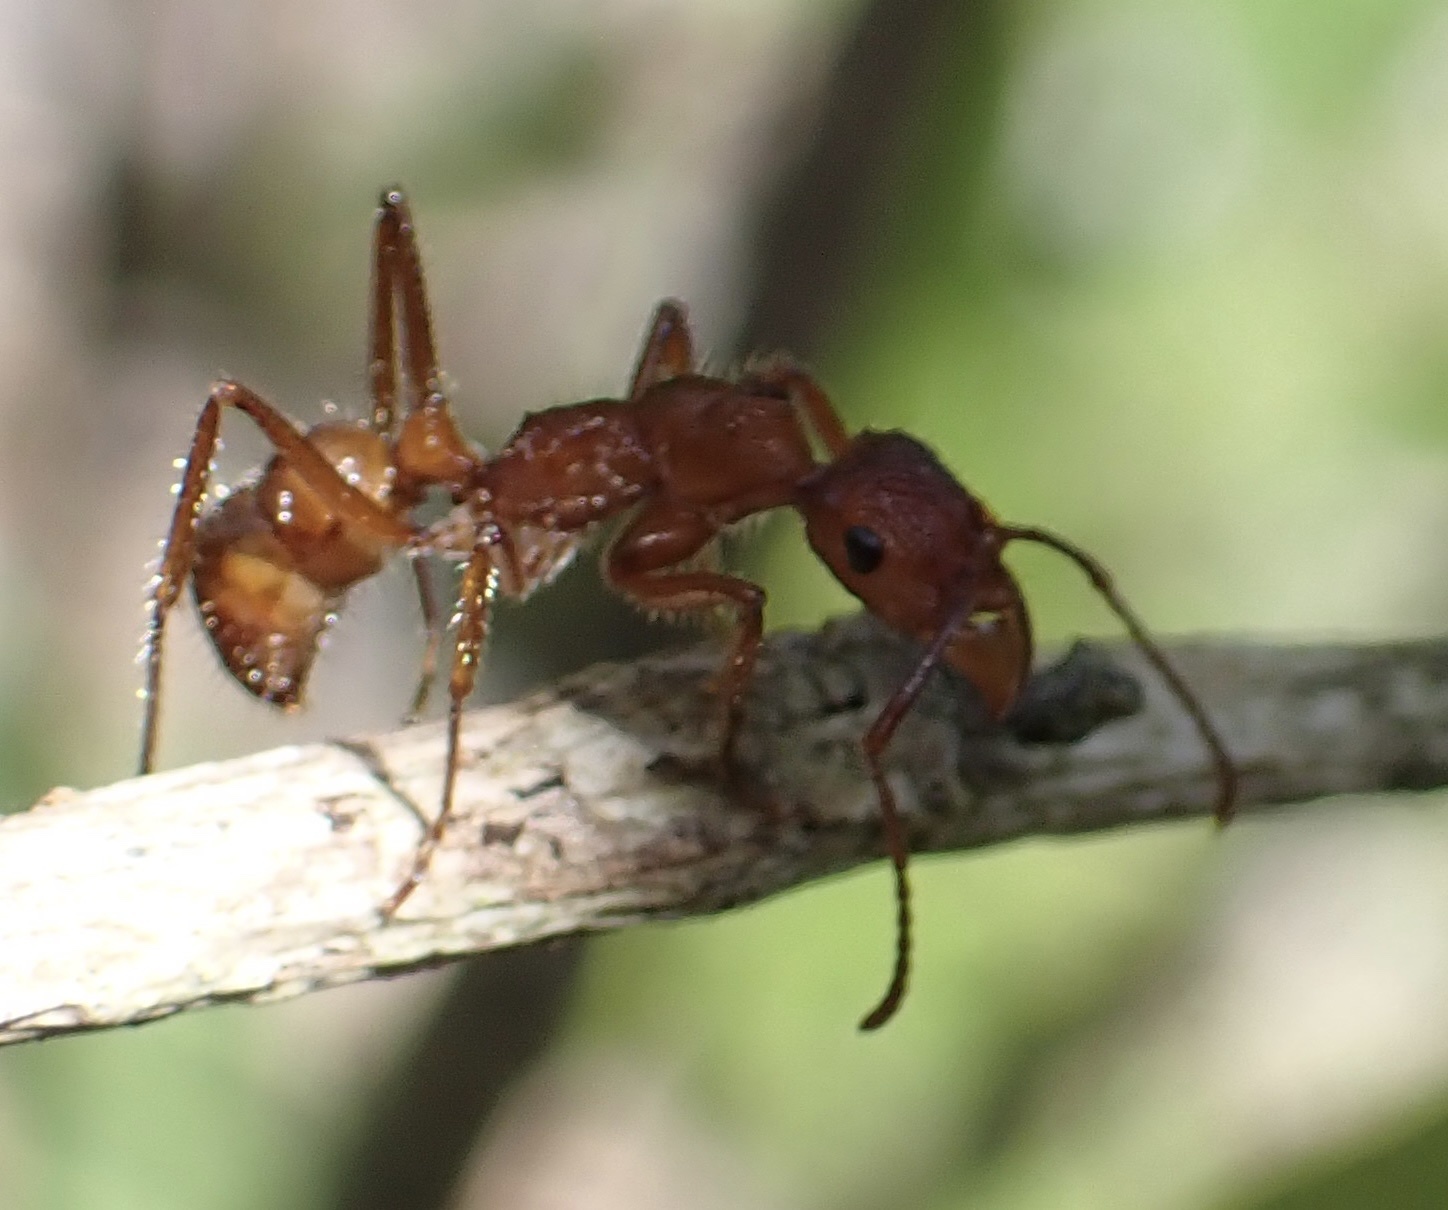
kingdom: Animalia
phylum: Arthropoda
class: Insecta
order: Hymenoptera
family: Formicidae
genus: Ectatomma
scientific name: Ectatomma tuberculatum
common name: Ant
